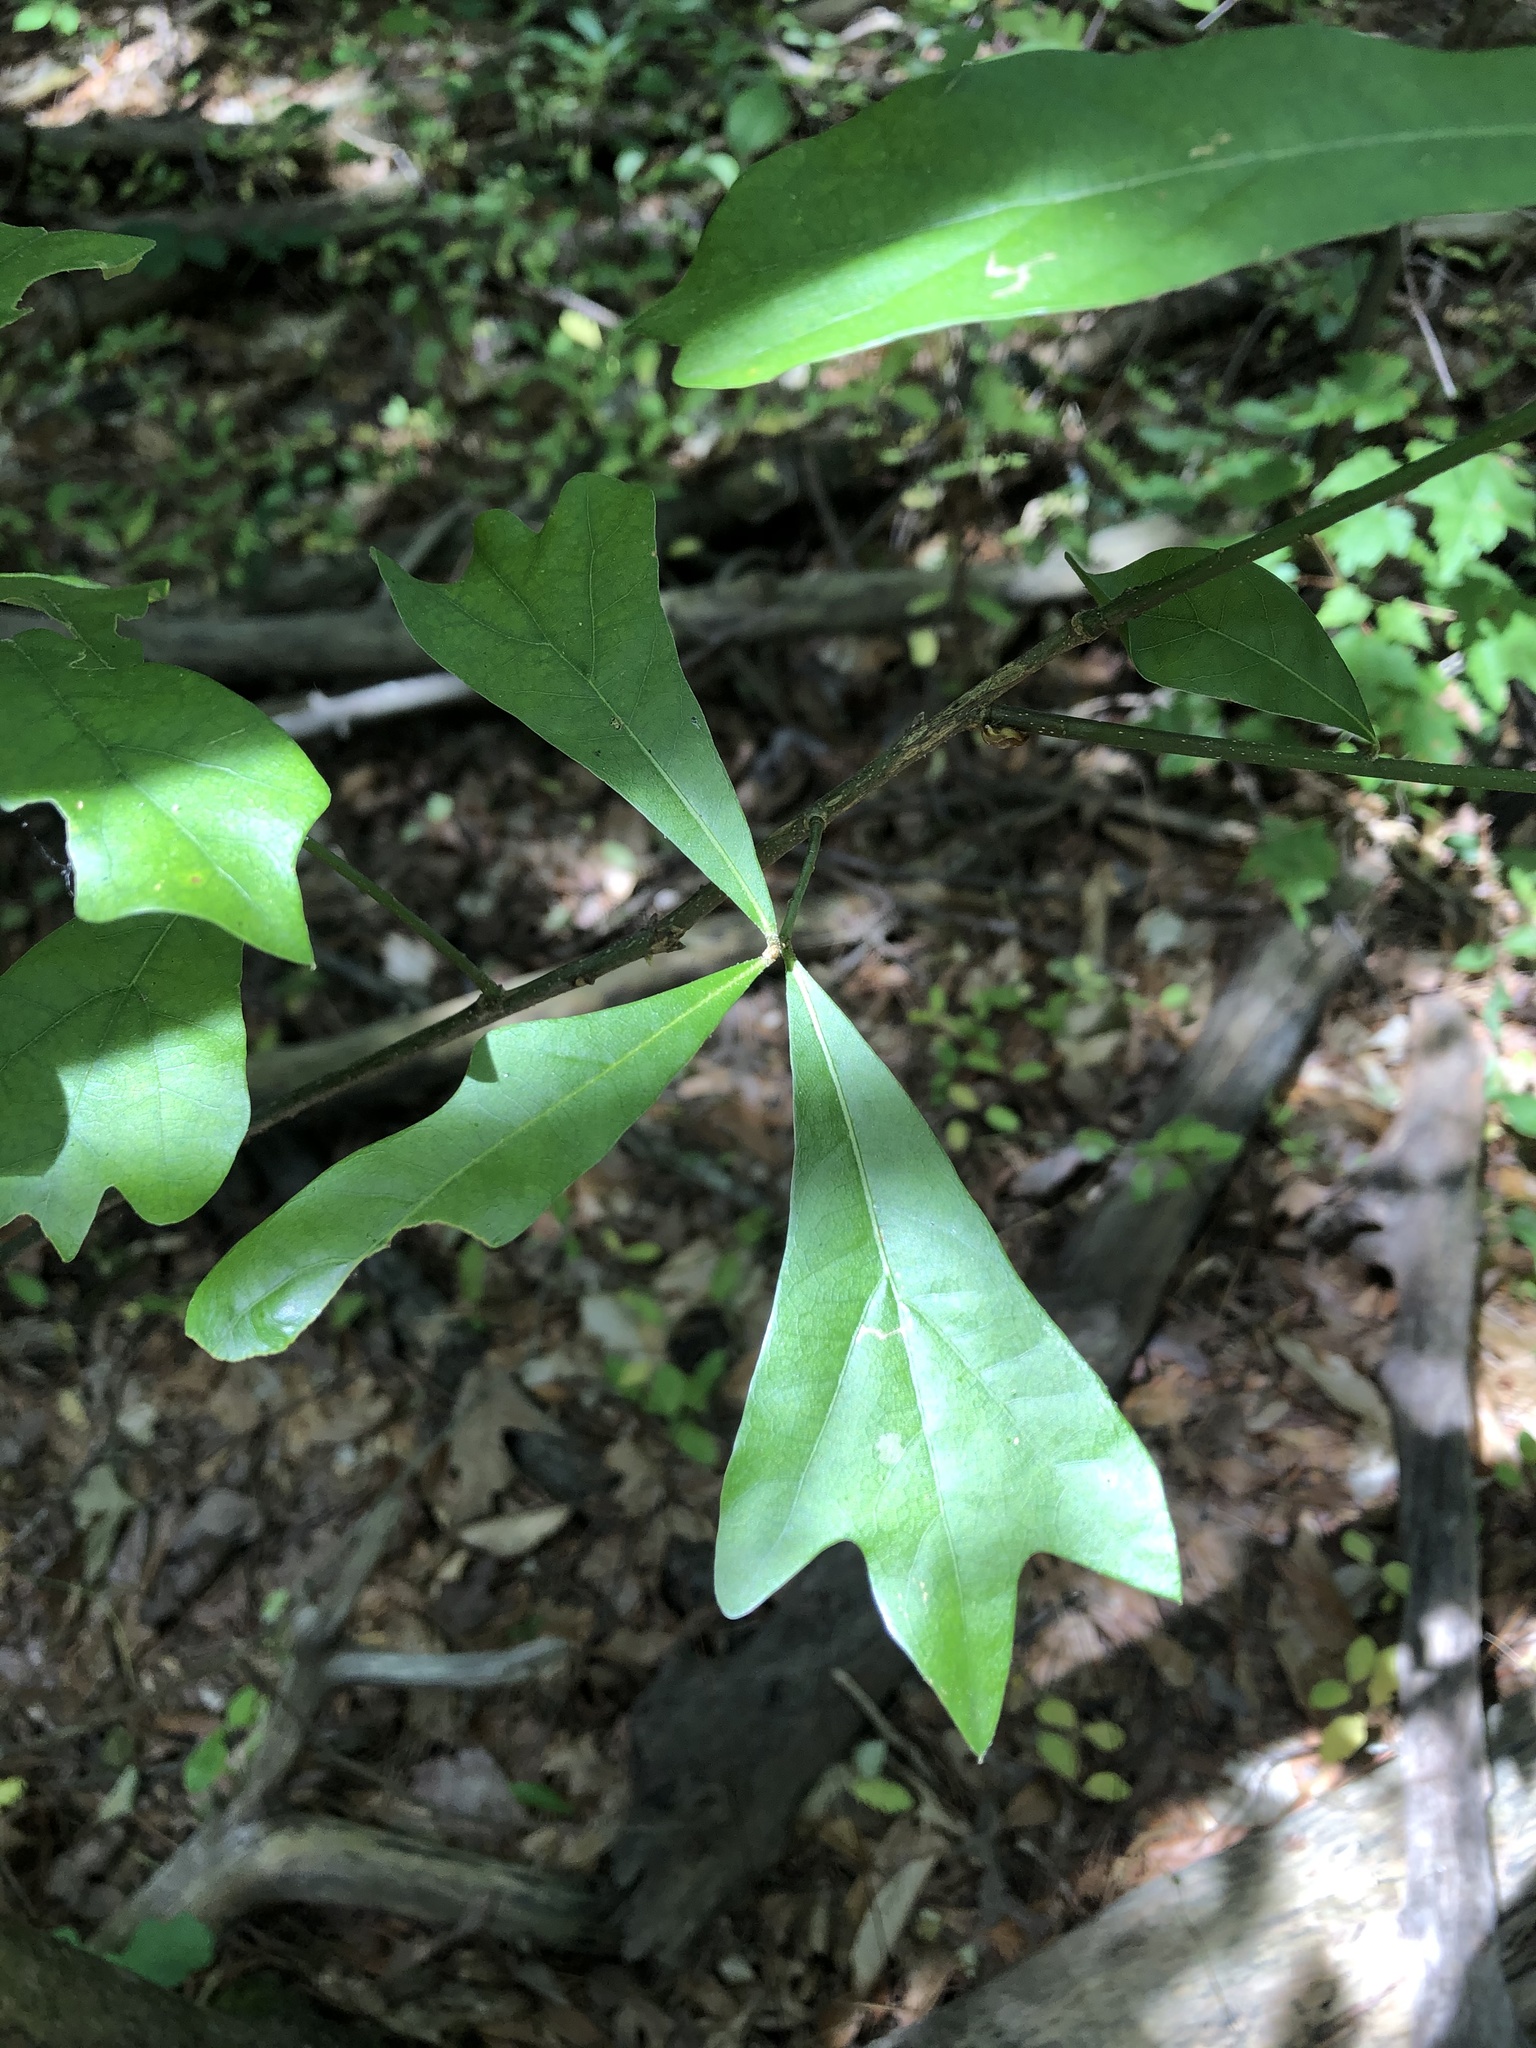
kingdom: Plantae
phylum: Tracheophyta
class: Magnoliopsida
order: Fagales
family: Fagaceae
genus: Quercus
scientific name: Quercus nigra
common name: Water oak
